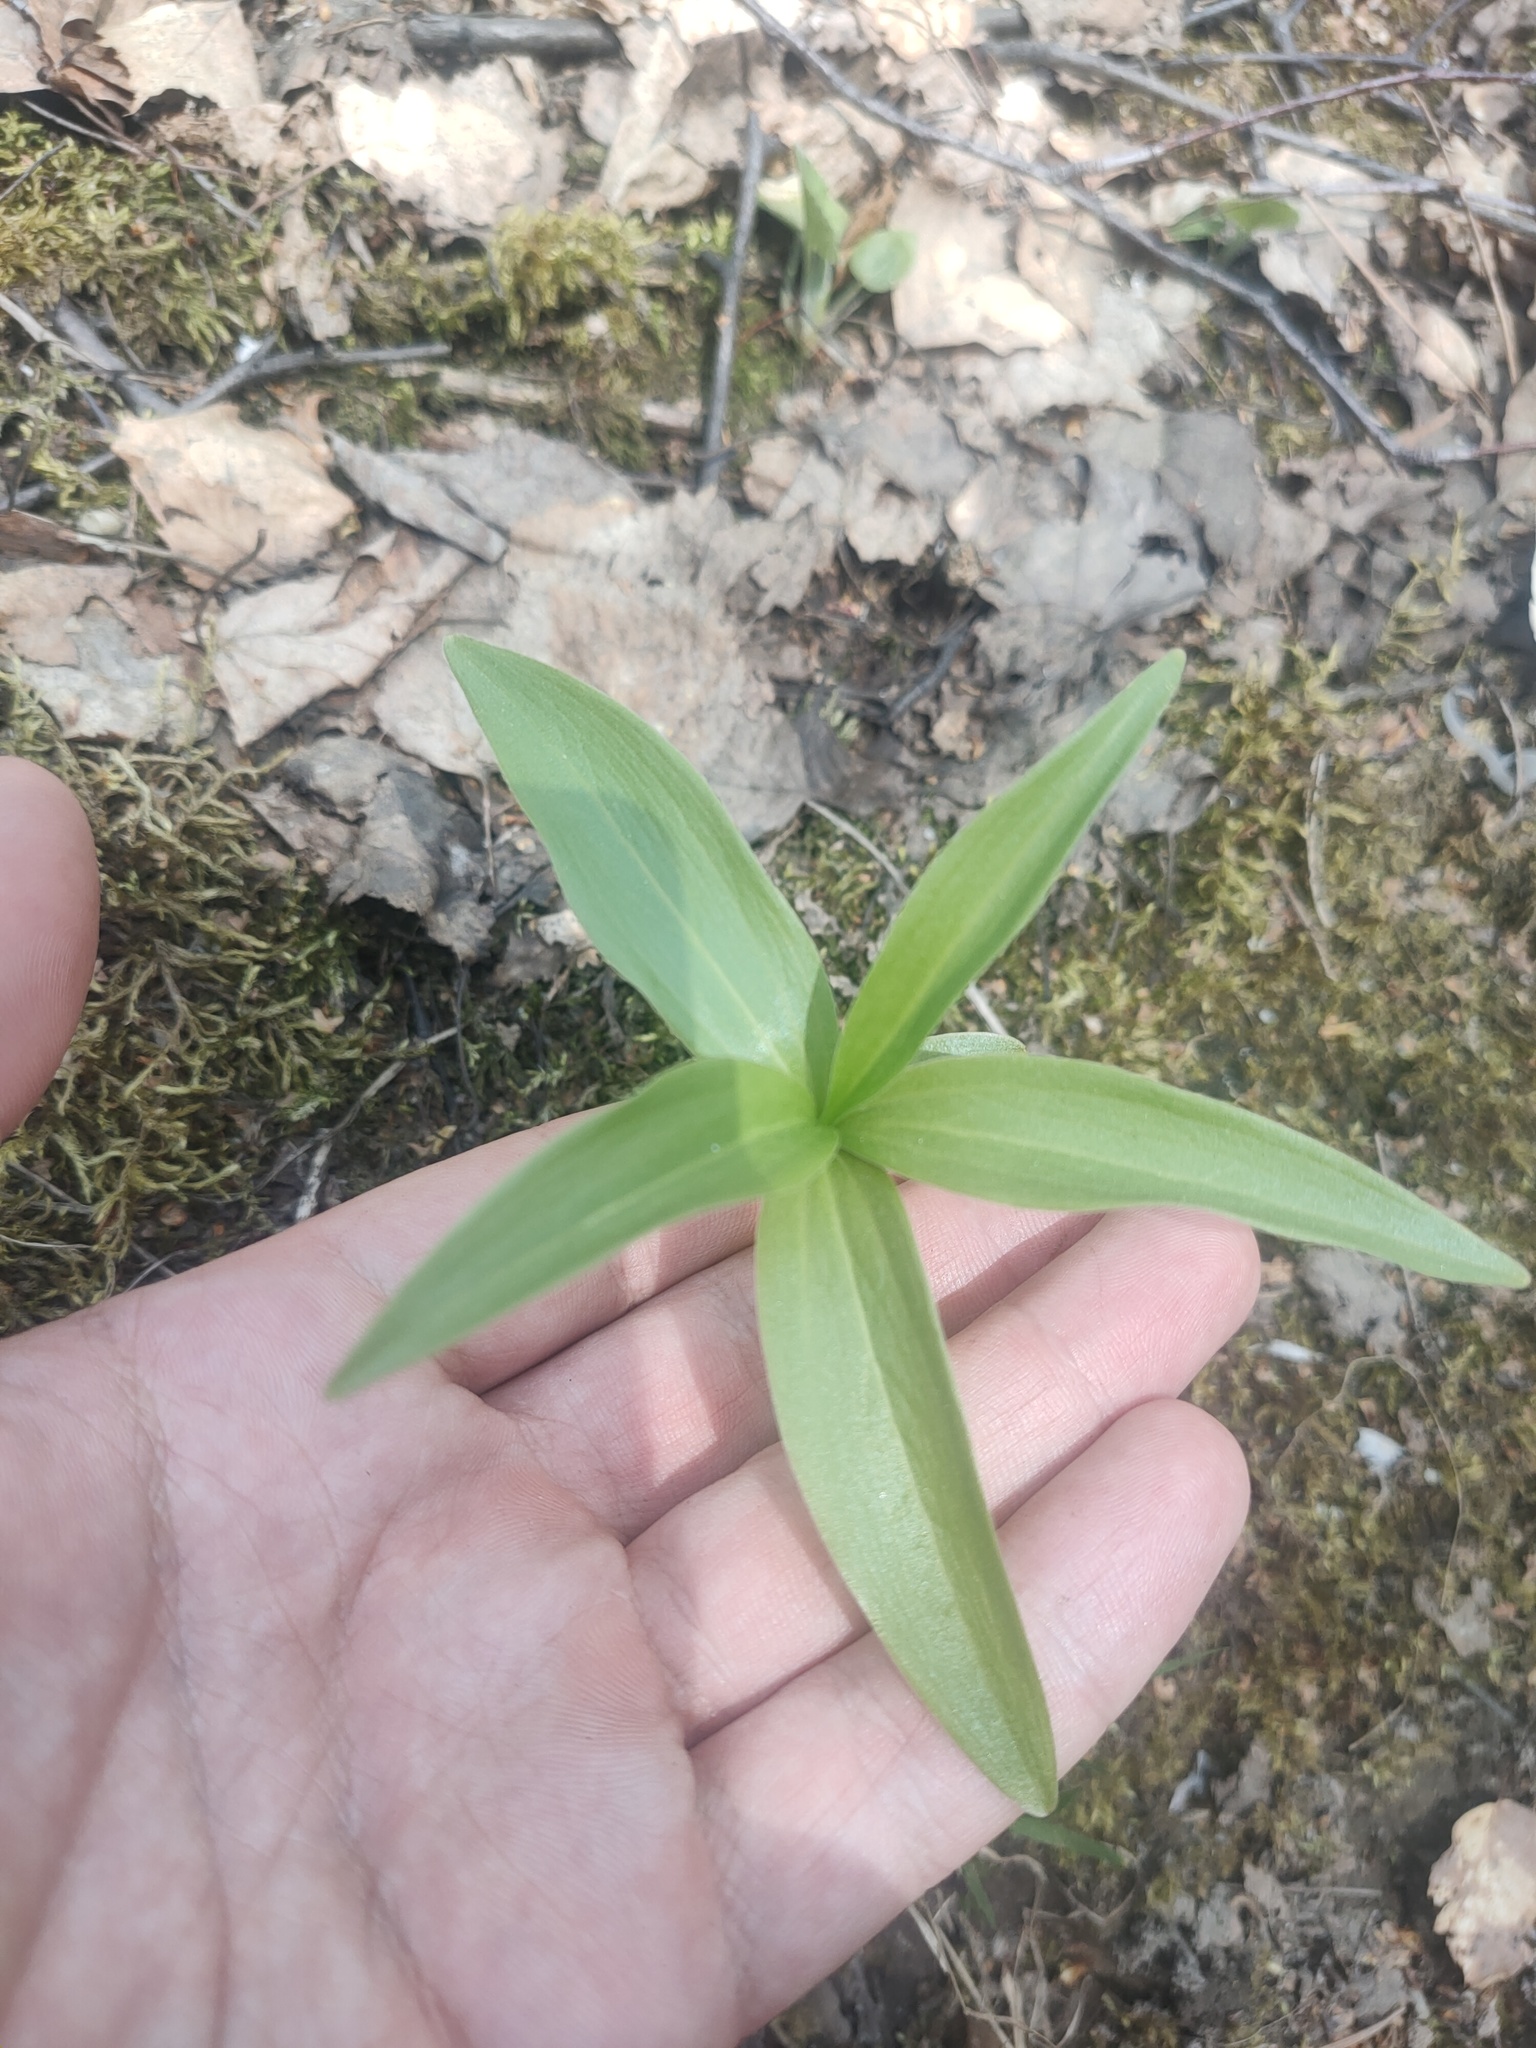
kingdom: Plantae
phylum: Tracheophyta
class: Liliopsida
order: Liliales
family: Liliaceae
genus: Lilium
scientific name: Lilium martagon
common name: Martagon lily
